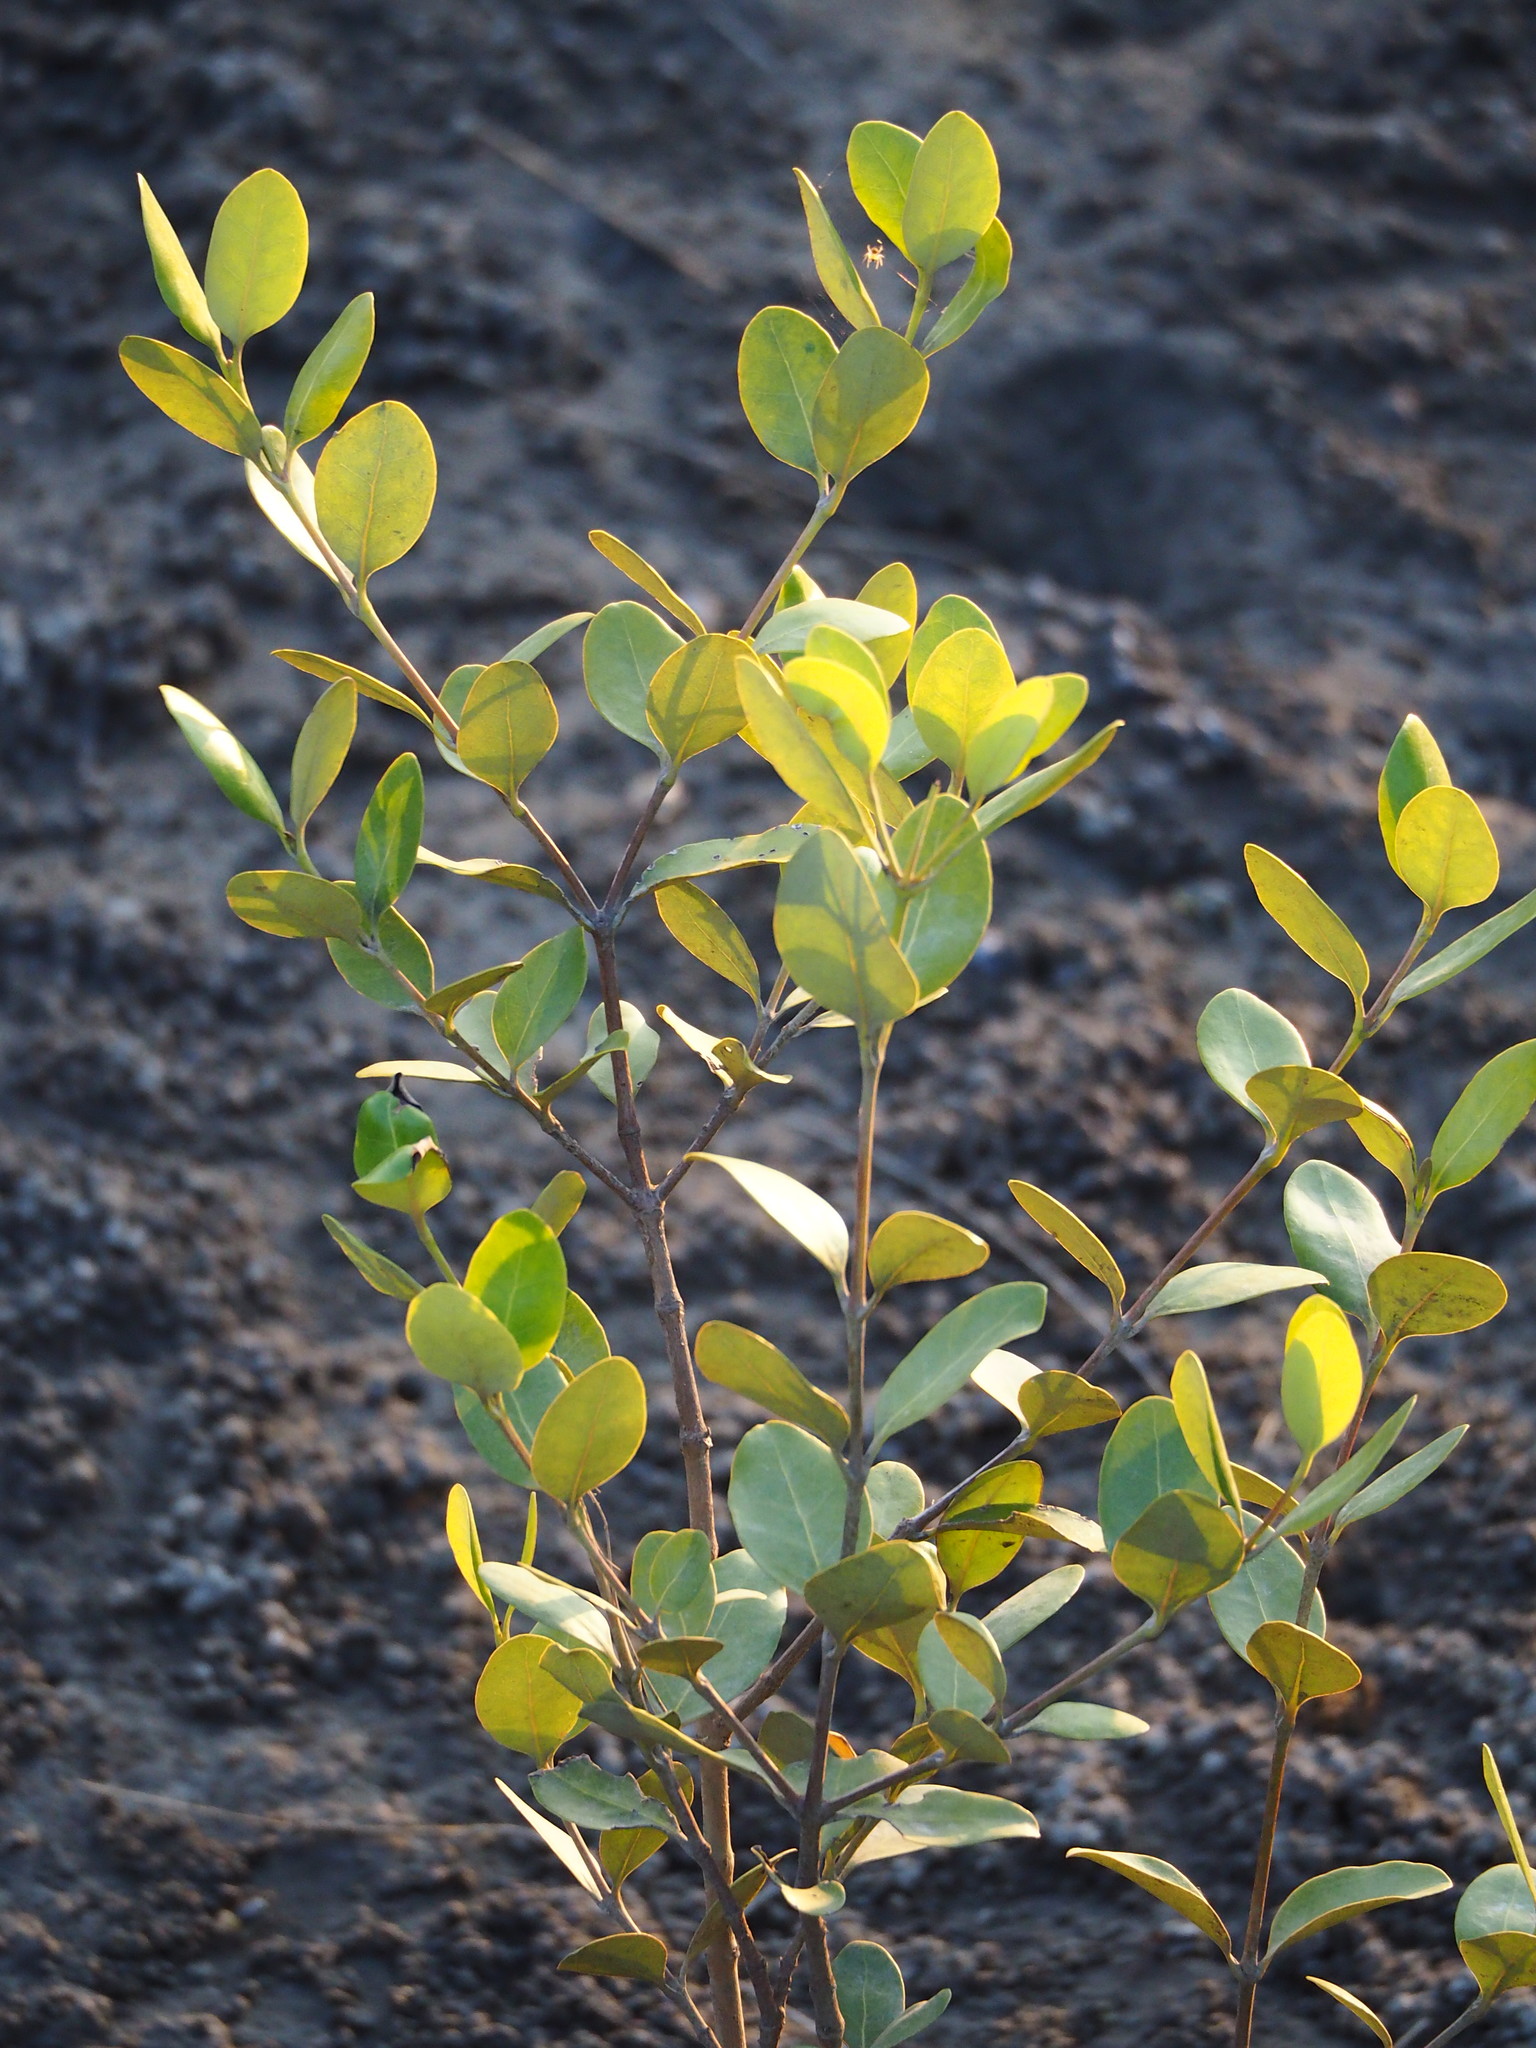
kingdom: Plantae
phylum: Tracheophyta
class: Magnoliopsida
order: Malpighiales
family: Rhizophoraceae
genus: Kandelia
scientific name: Kandelia obovata
